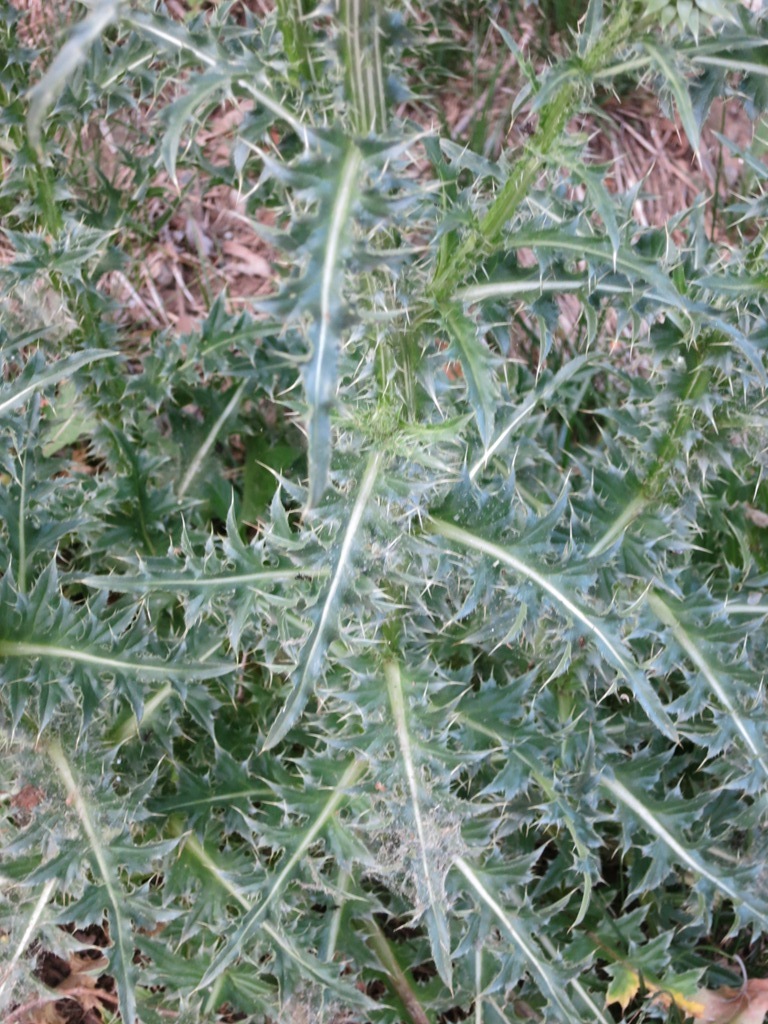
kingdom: Plantae
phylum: Tracheophyta
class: Magnoliopsida
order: Asterales
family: Asteraceae
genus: Carduus
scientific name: Carduus nutans
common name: Musk thistle
